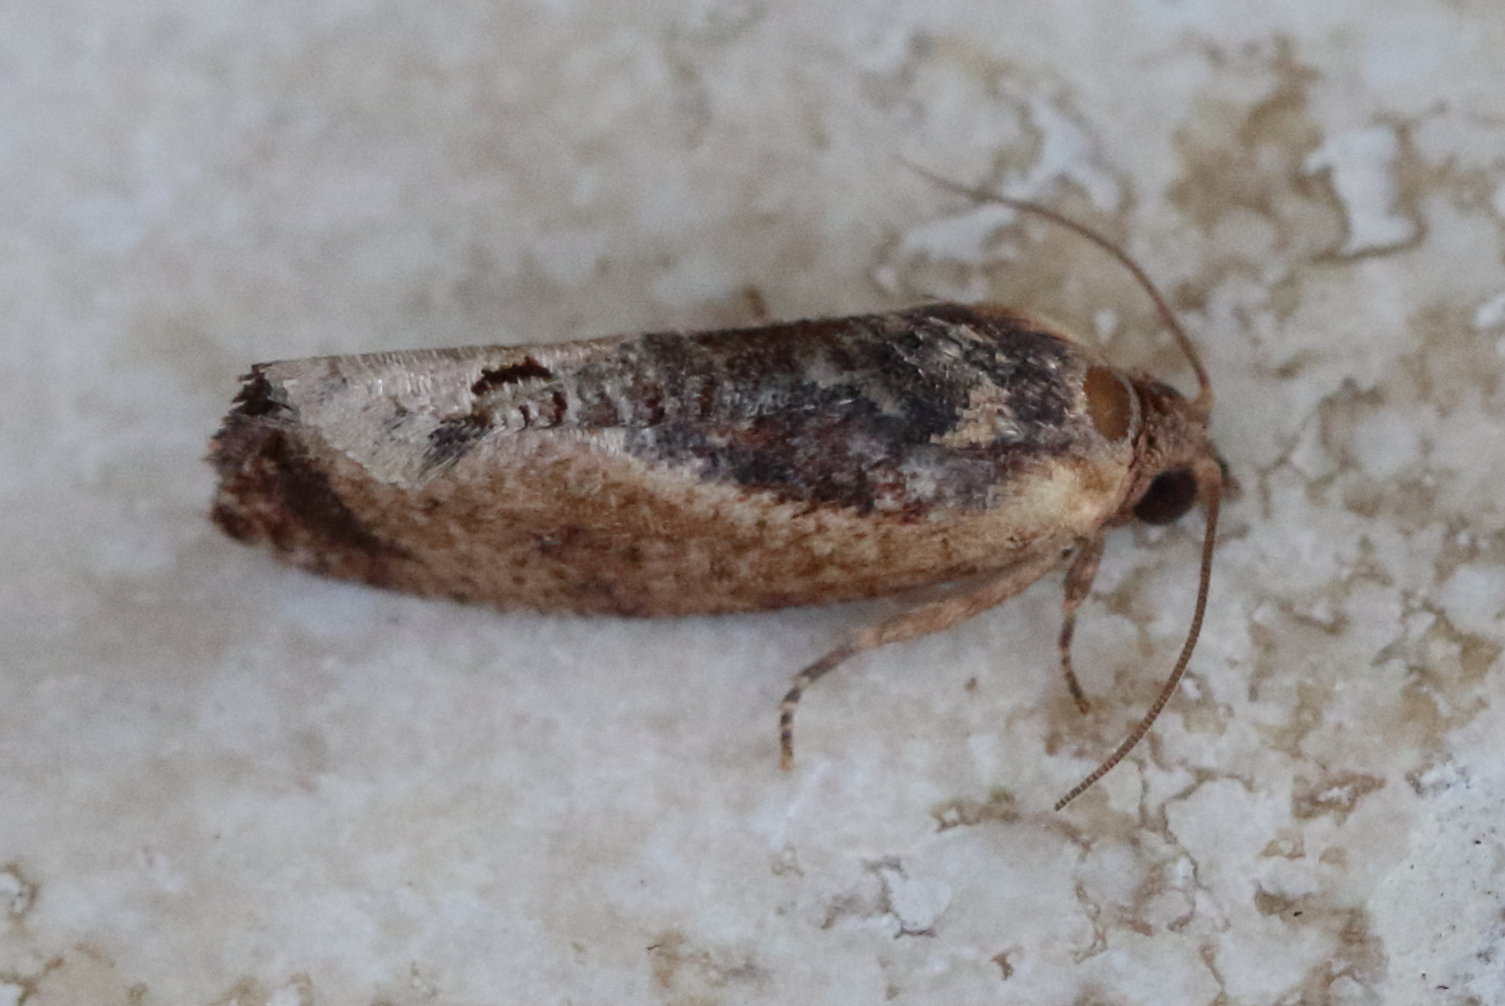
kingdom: Animalia
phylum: Arthropoda
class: Insecta
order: Lepidoptera
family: Tortricidae
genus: Cryptophlebia
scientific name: Cryptophlebia ombrodelta
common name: Litchi fruit moth
